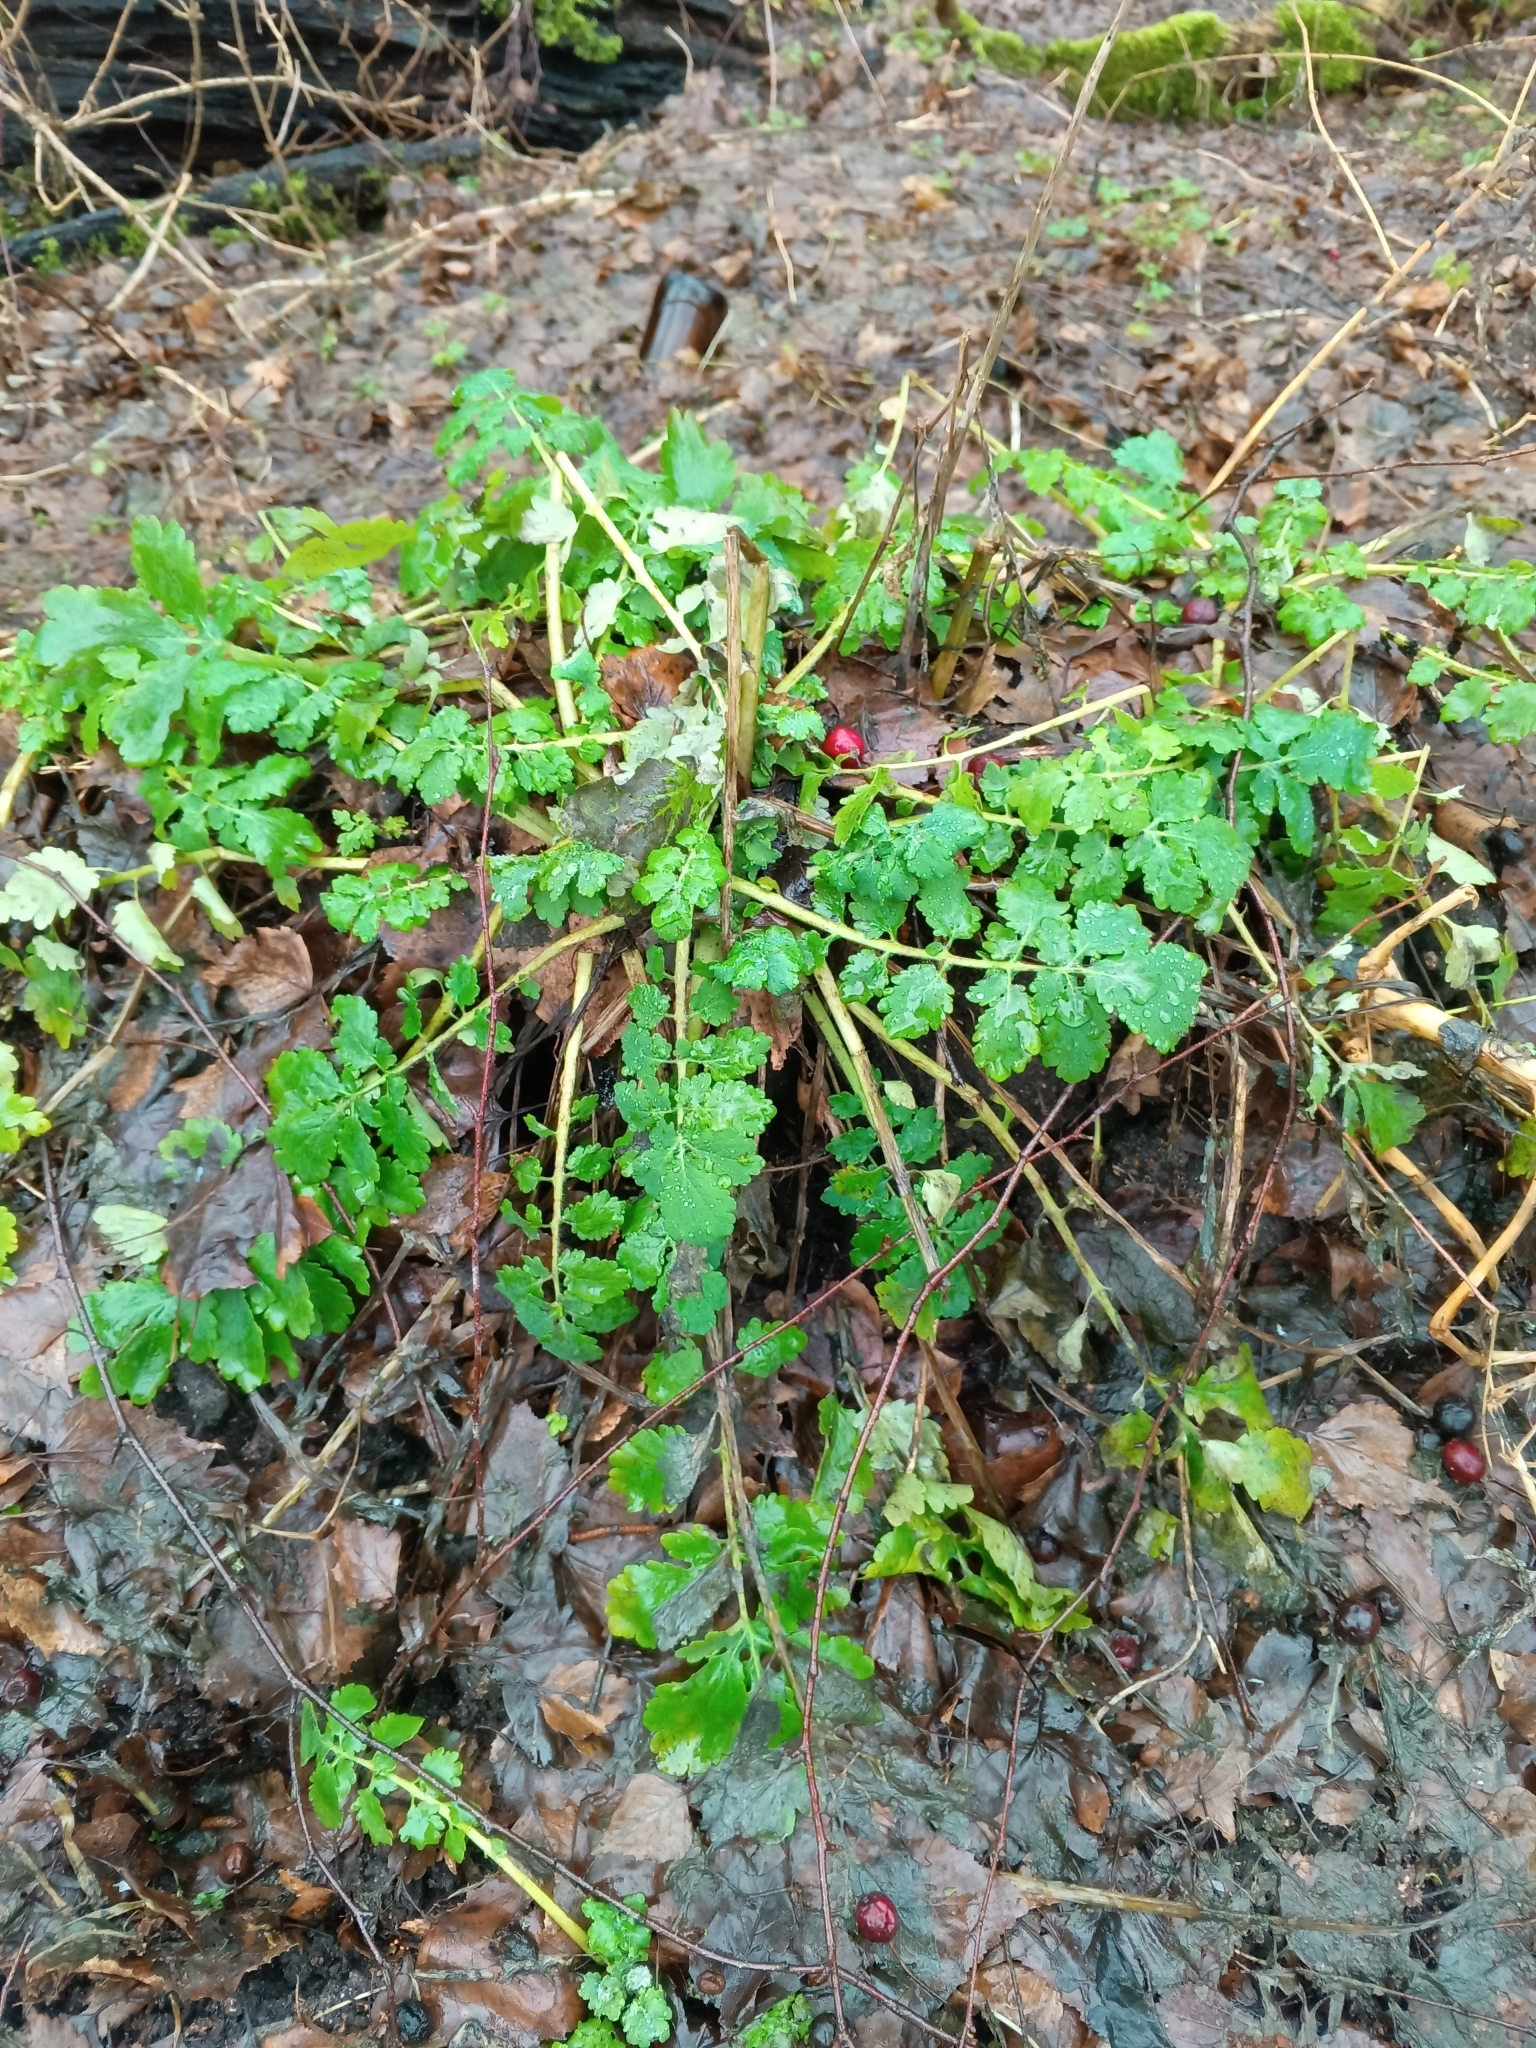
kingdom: Plantae
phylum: Tracheophyta
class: Magnoliopsida
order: Ranunculales
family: Papaveraceae
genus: Chelidonium
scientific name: Chelidonium majus
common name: Greater celandine
